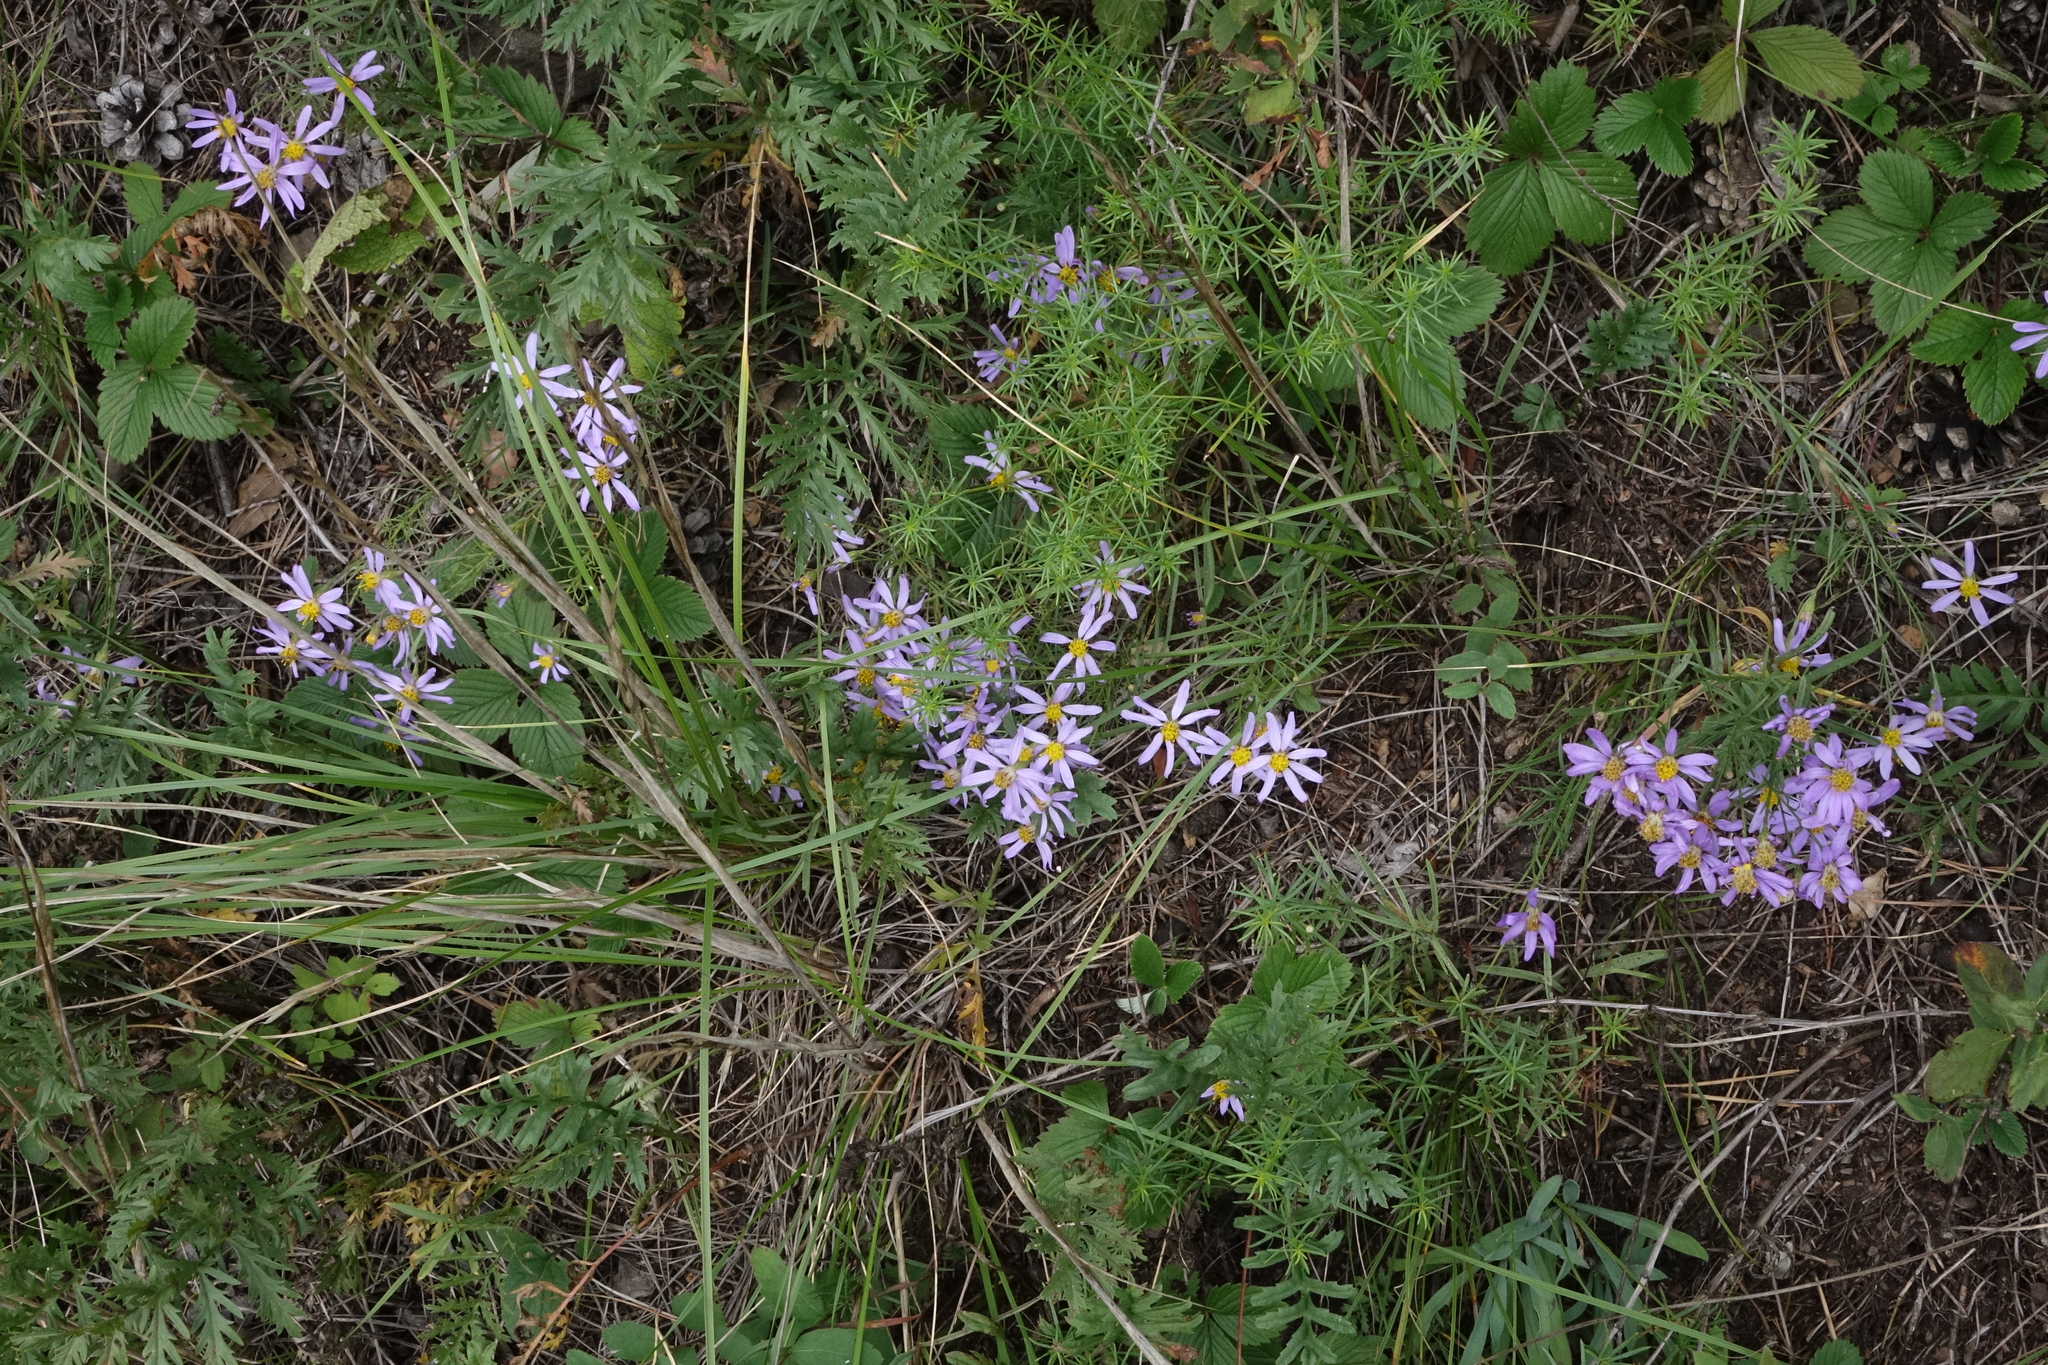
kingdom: Plantae
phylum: Tracheophyta
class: Magnoliopsida
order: Asterales
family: Asteraceae
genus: Galatella
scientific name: Galatella angustissima
